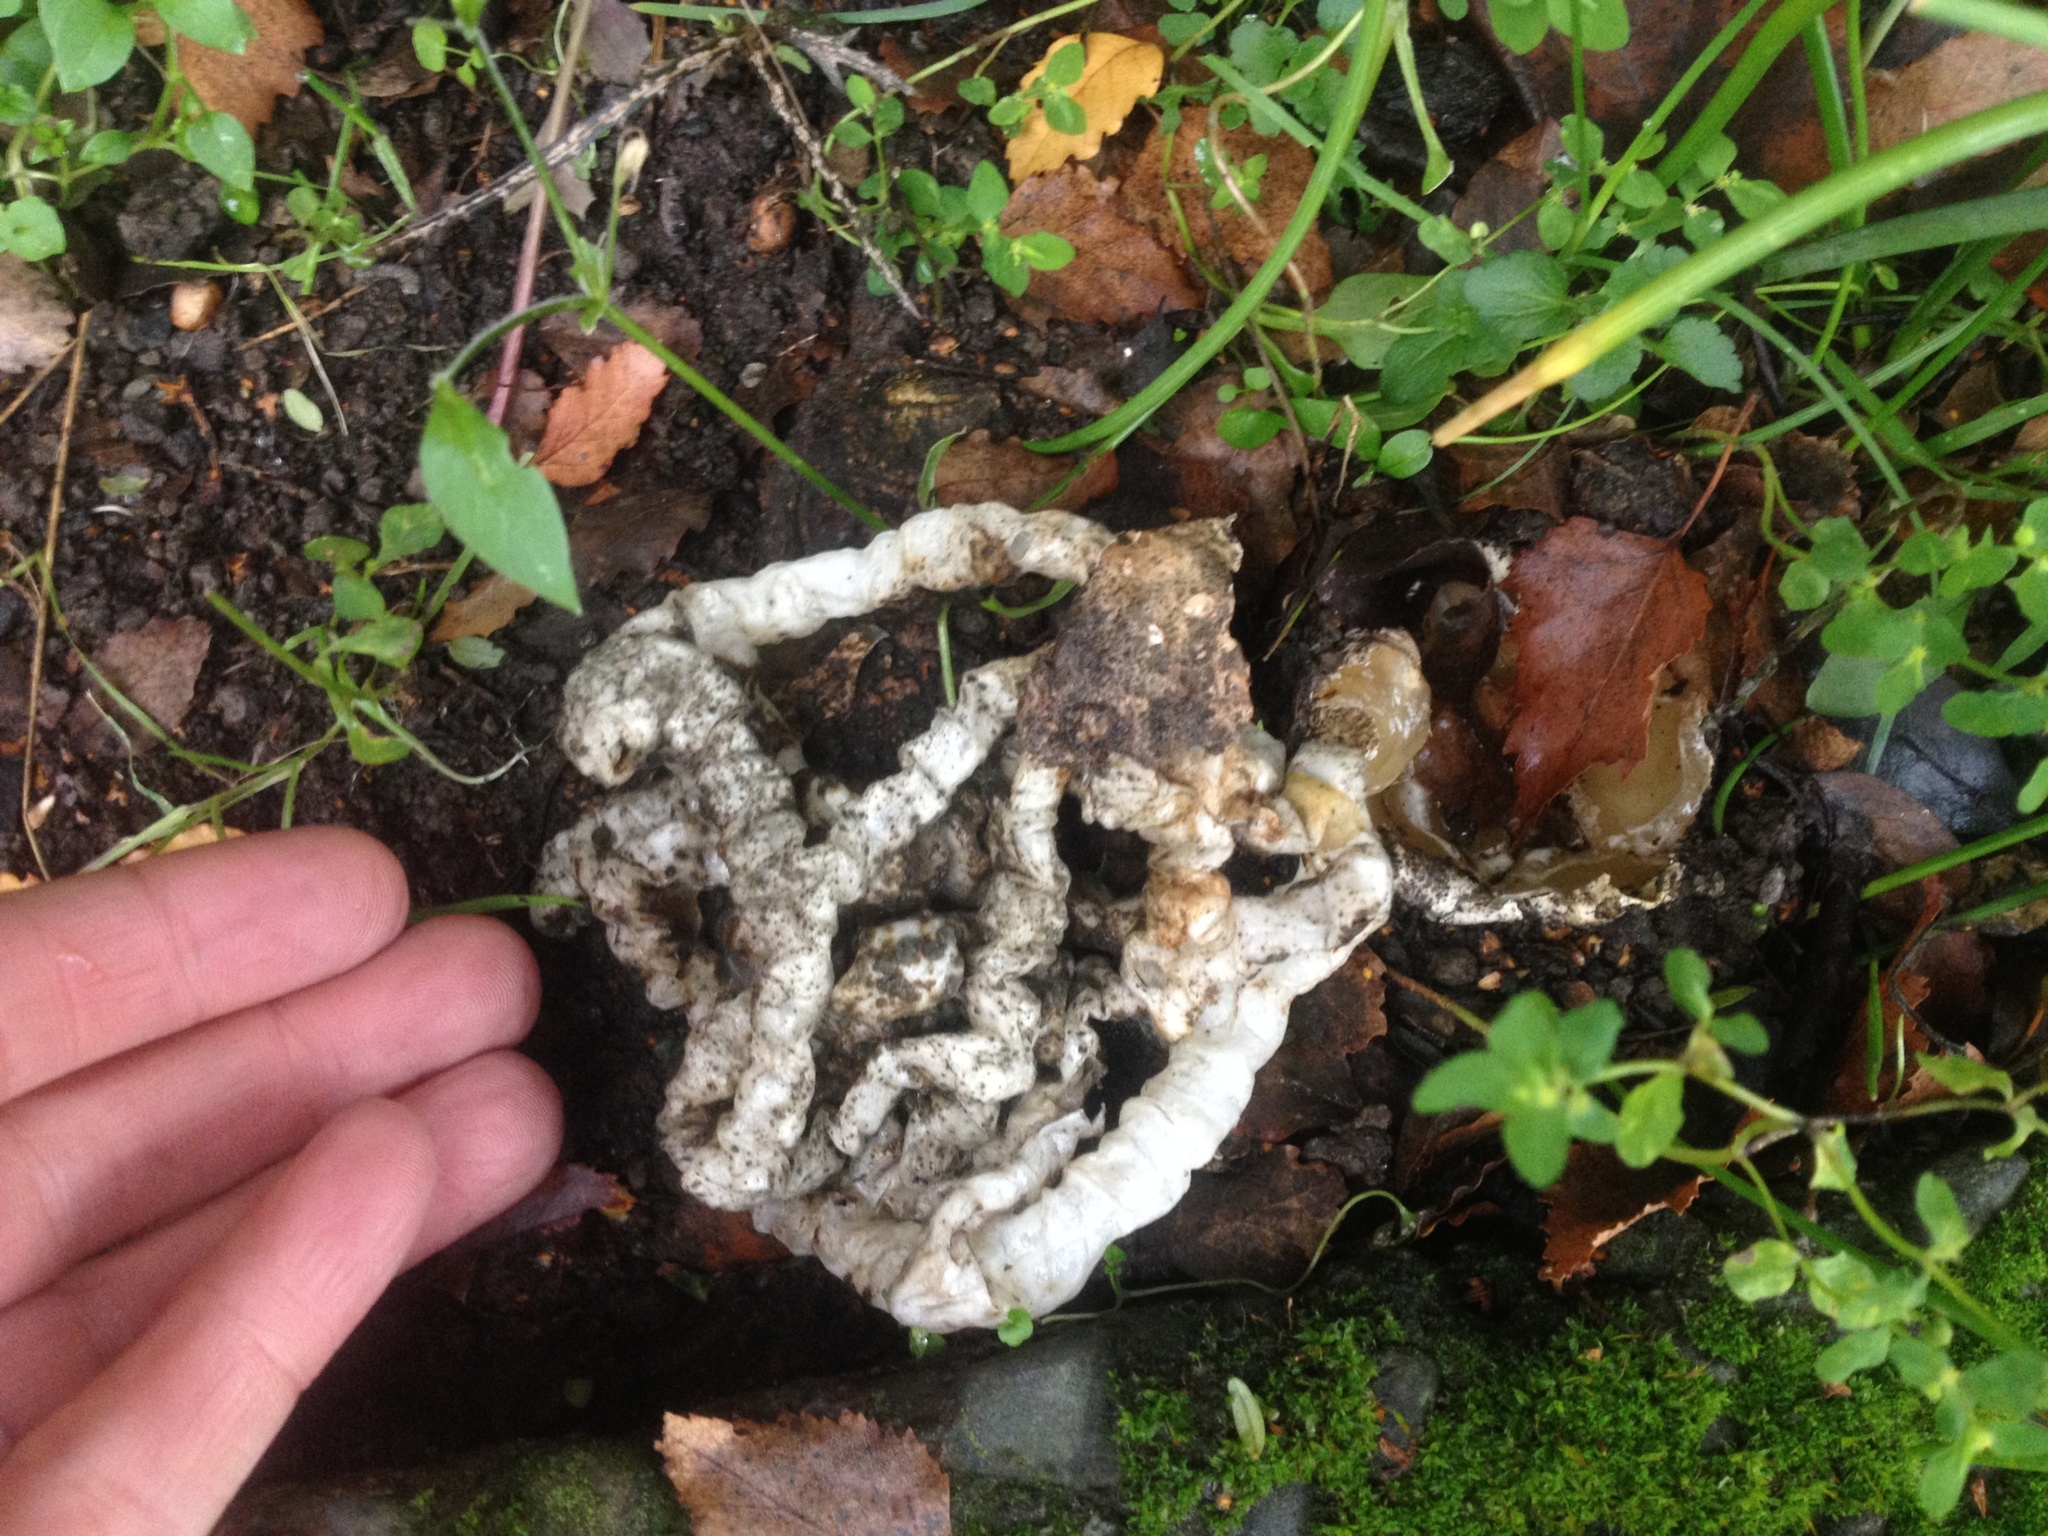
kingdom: Fungi
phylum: Basidiomycota
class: Agaricomycetes
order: Phallales
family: Phallaceae
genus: Ileodictyon
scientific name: Ileodictyon cibarium
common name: Basket fungus
